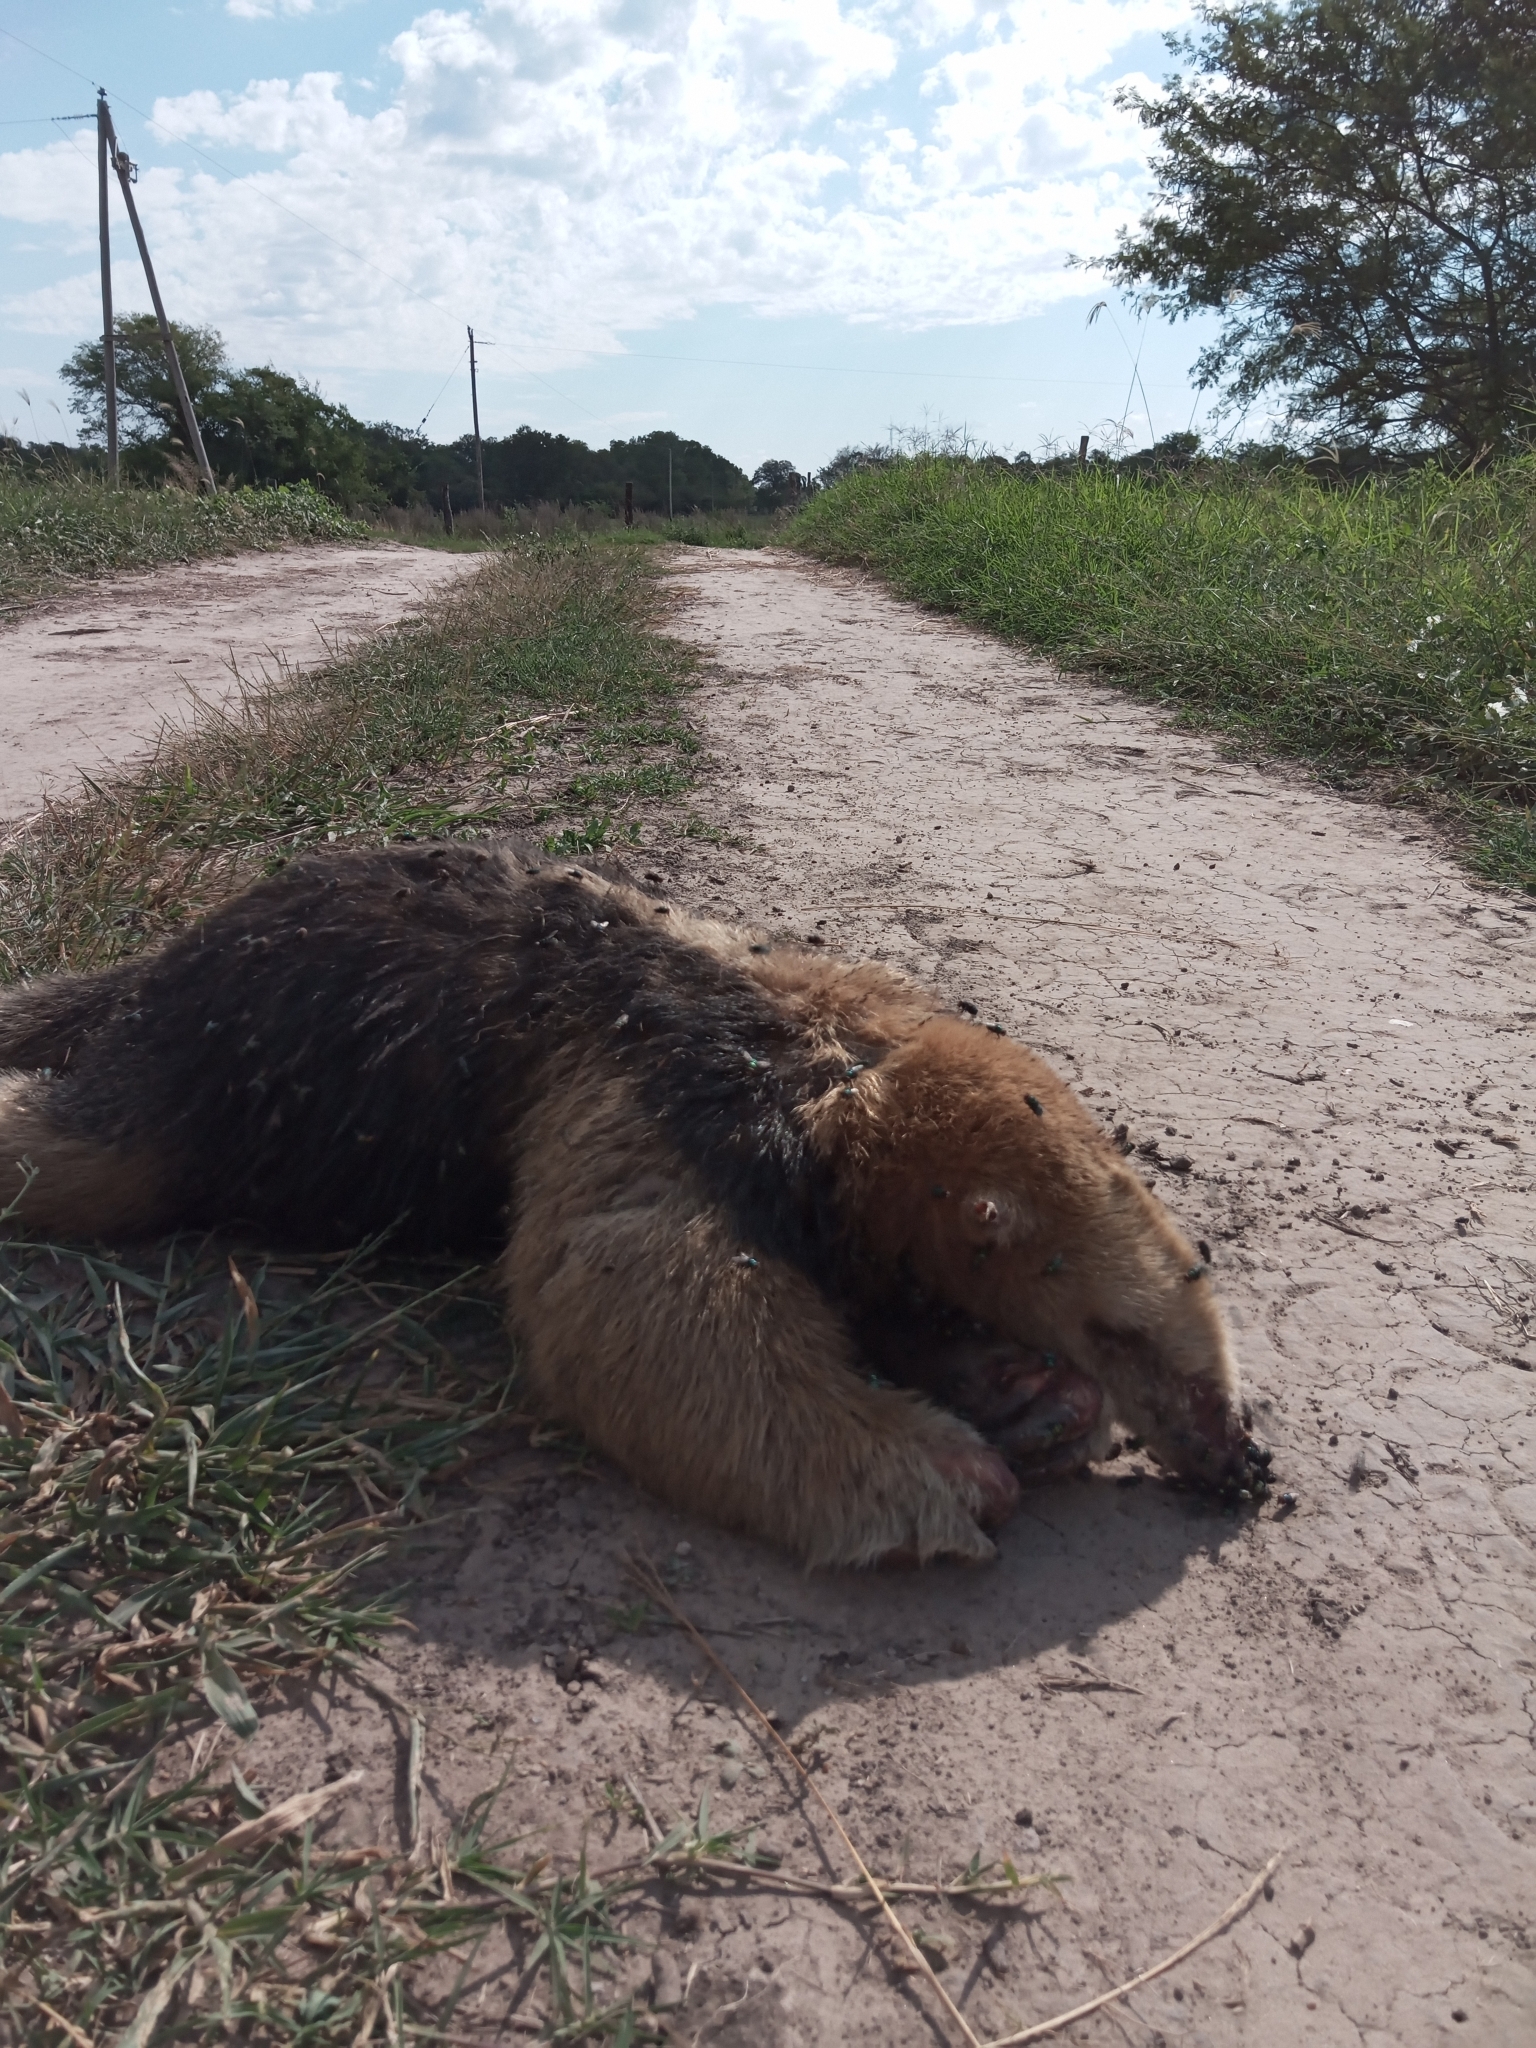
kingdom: Animalia
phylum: Chordata
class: Mammalia
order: Pilosa
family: Myrmecophagidae
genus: Tamandua
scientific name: Tamandua tetradactyla
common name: Southern tamandua
